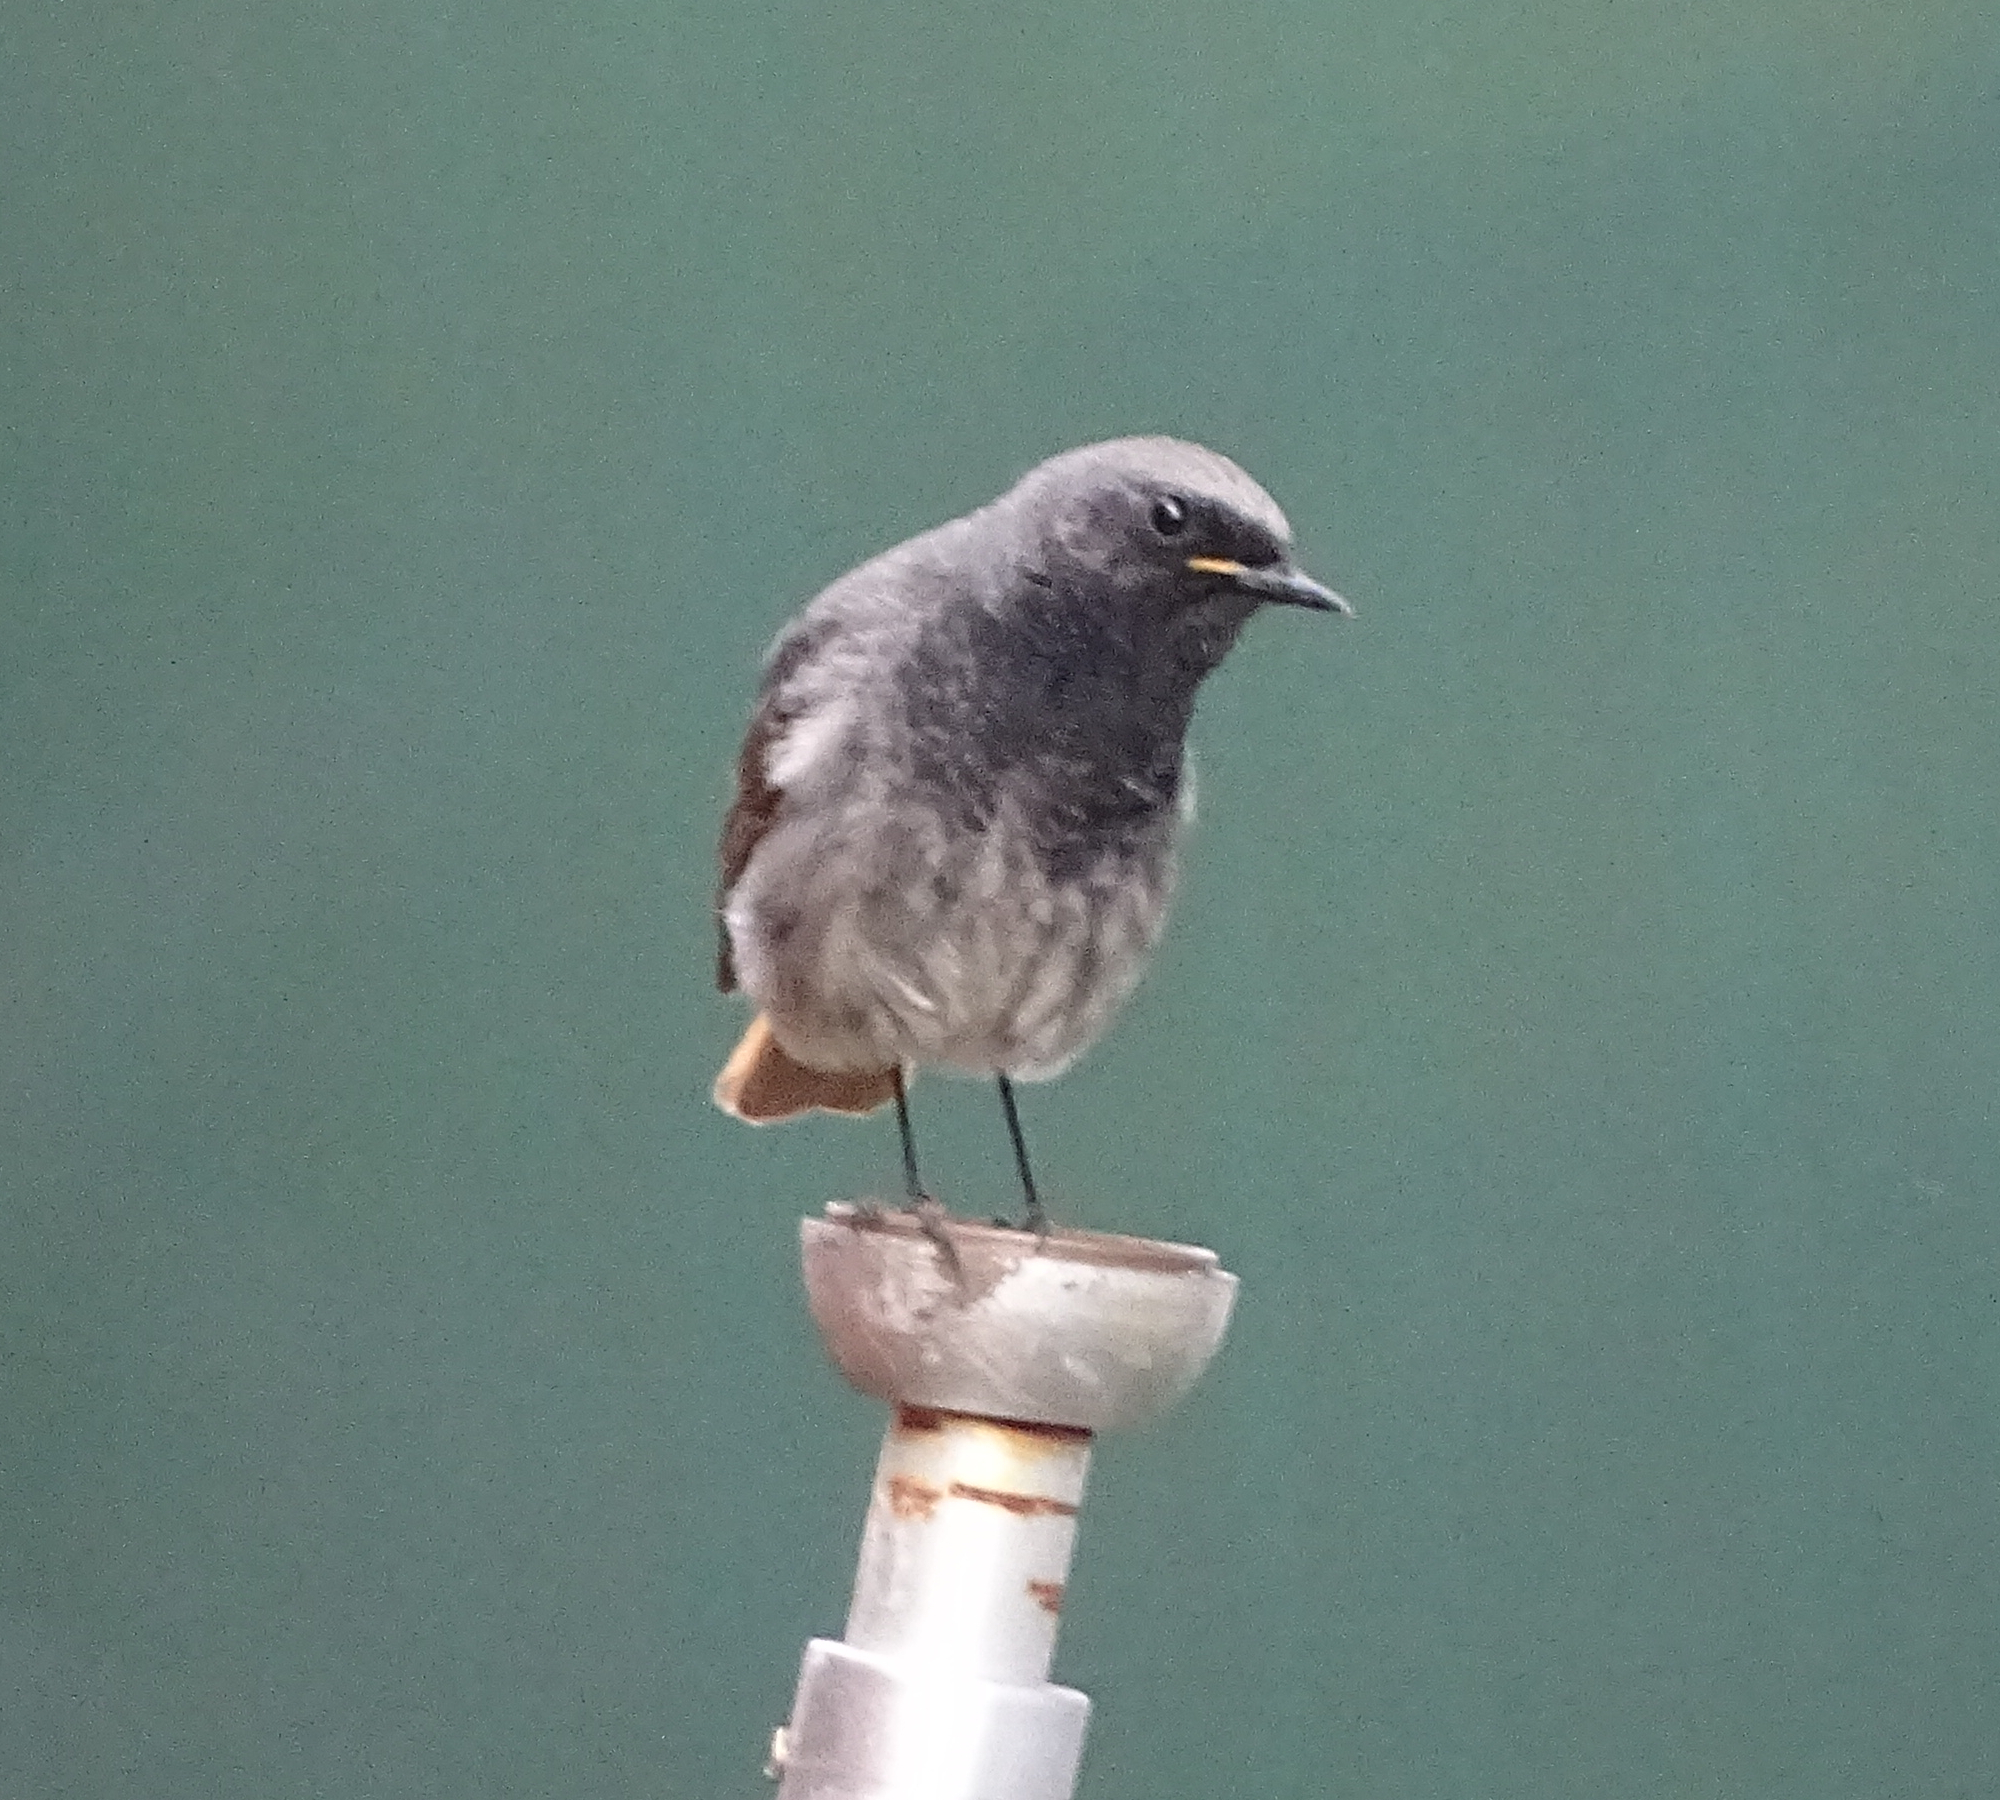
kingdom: Animalia
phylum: Chordata
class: Aves
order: Passeriformes
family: Muscicapidae
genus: Phoenicurus
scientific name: Phoenicurus ochruros
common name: Black redstart
